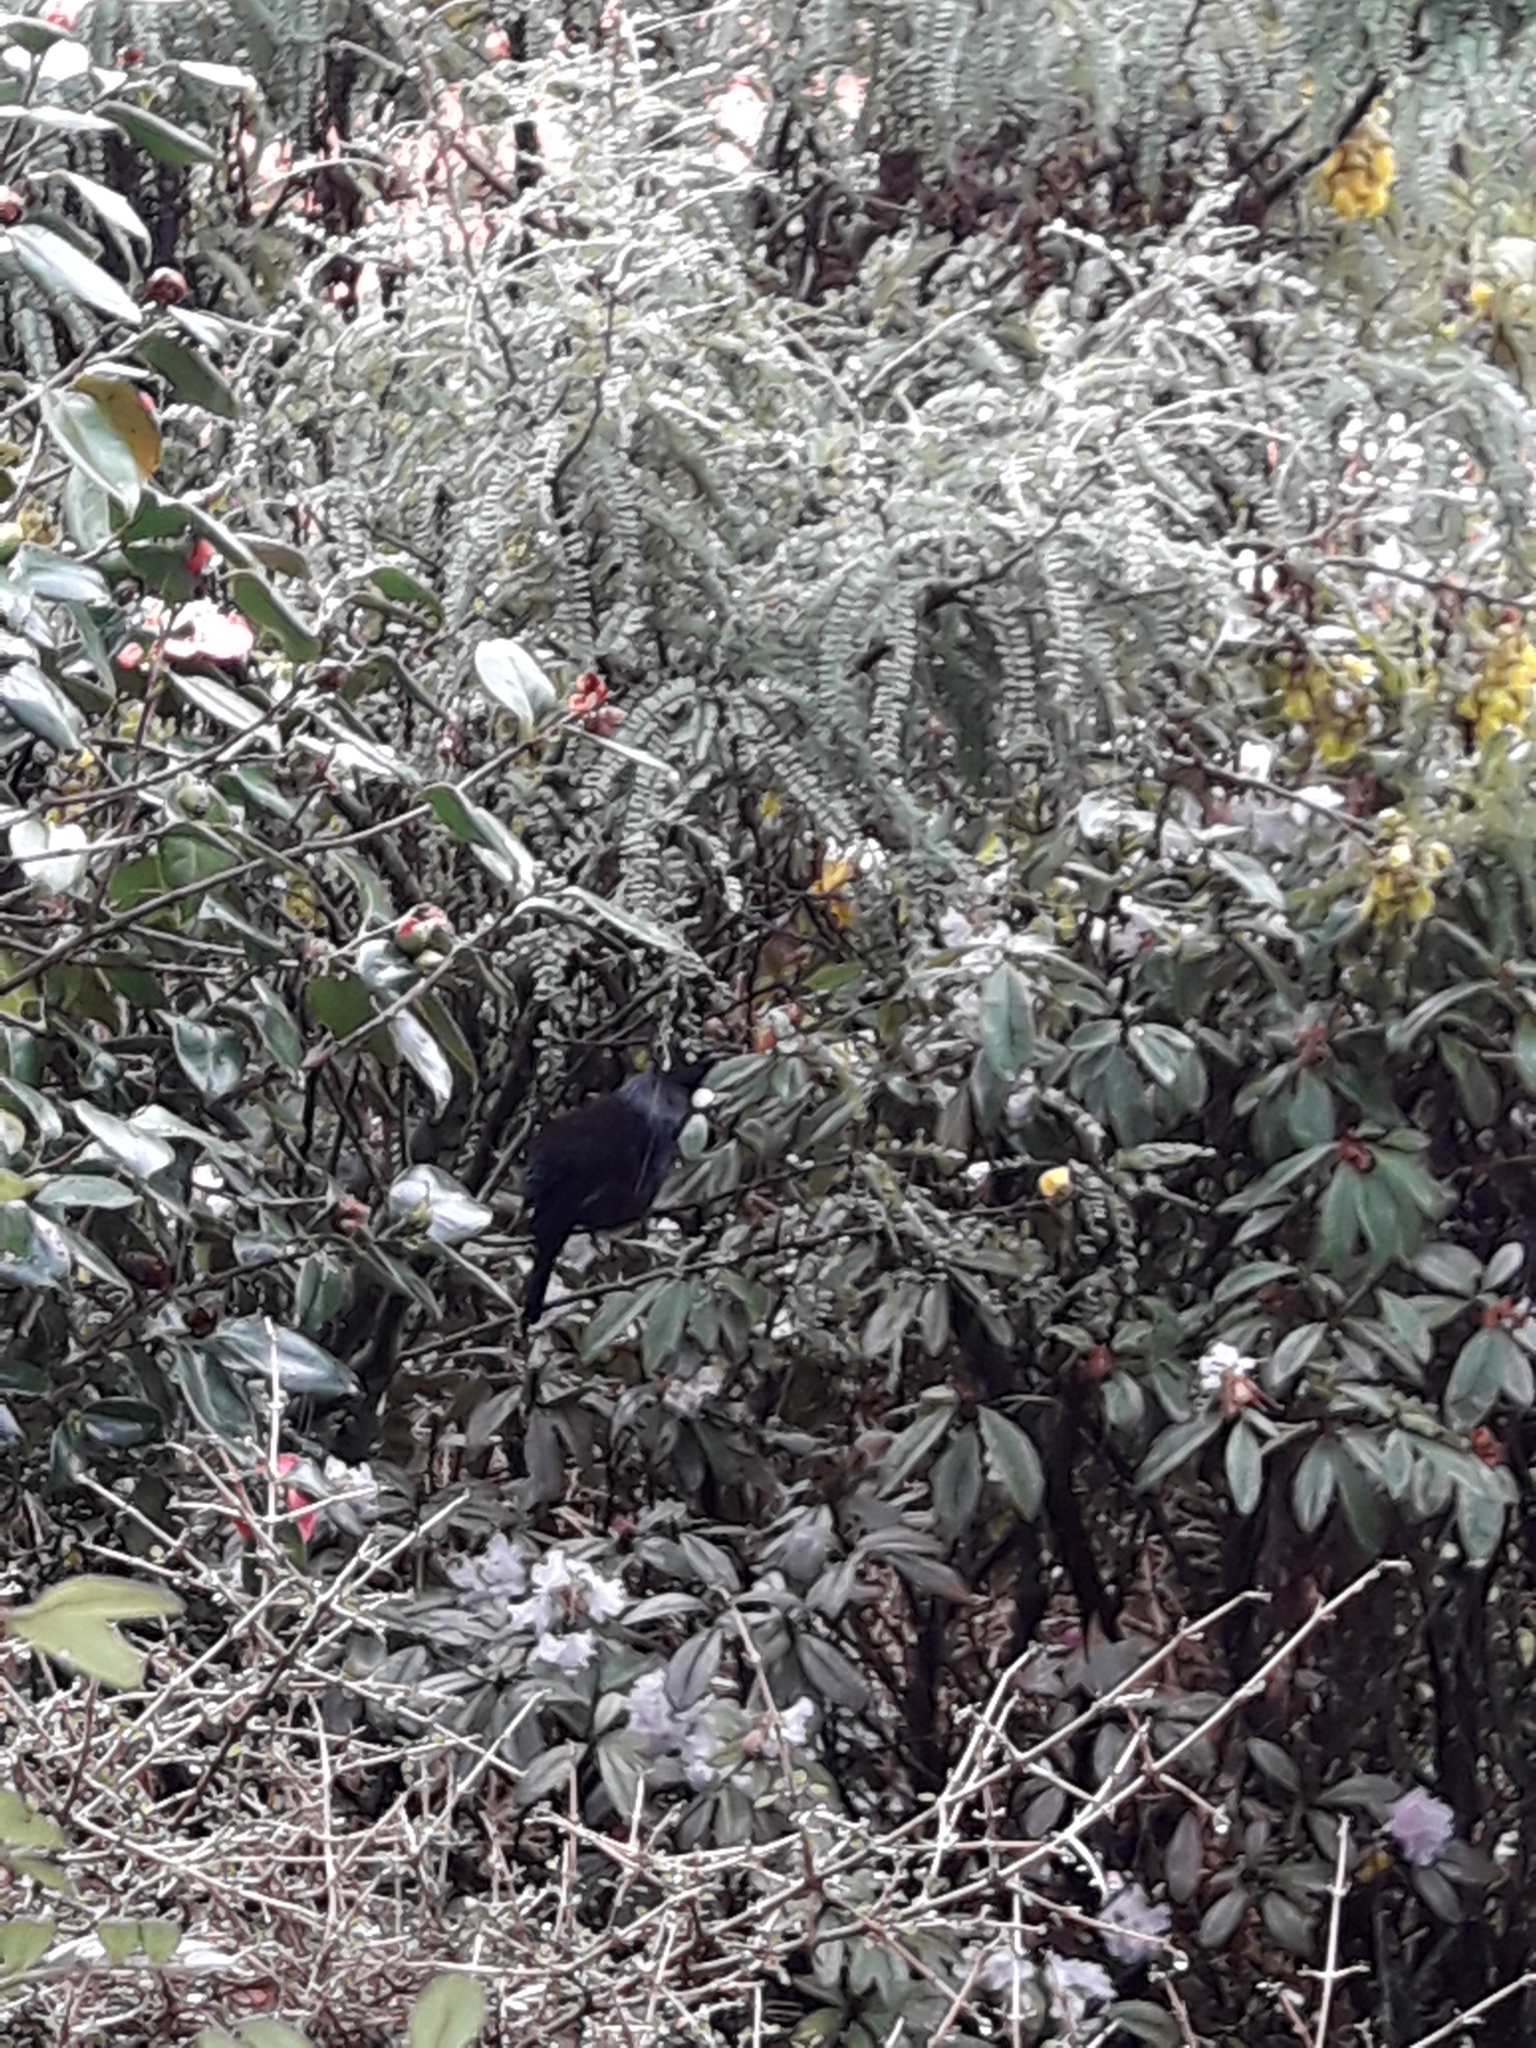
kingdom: Animalia
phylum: Chordata
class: Aves
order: Passeriformes
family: Meliphagidae
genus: Prosthemadera
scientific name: Prosthemadera novaeseelandiae
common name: Tui
